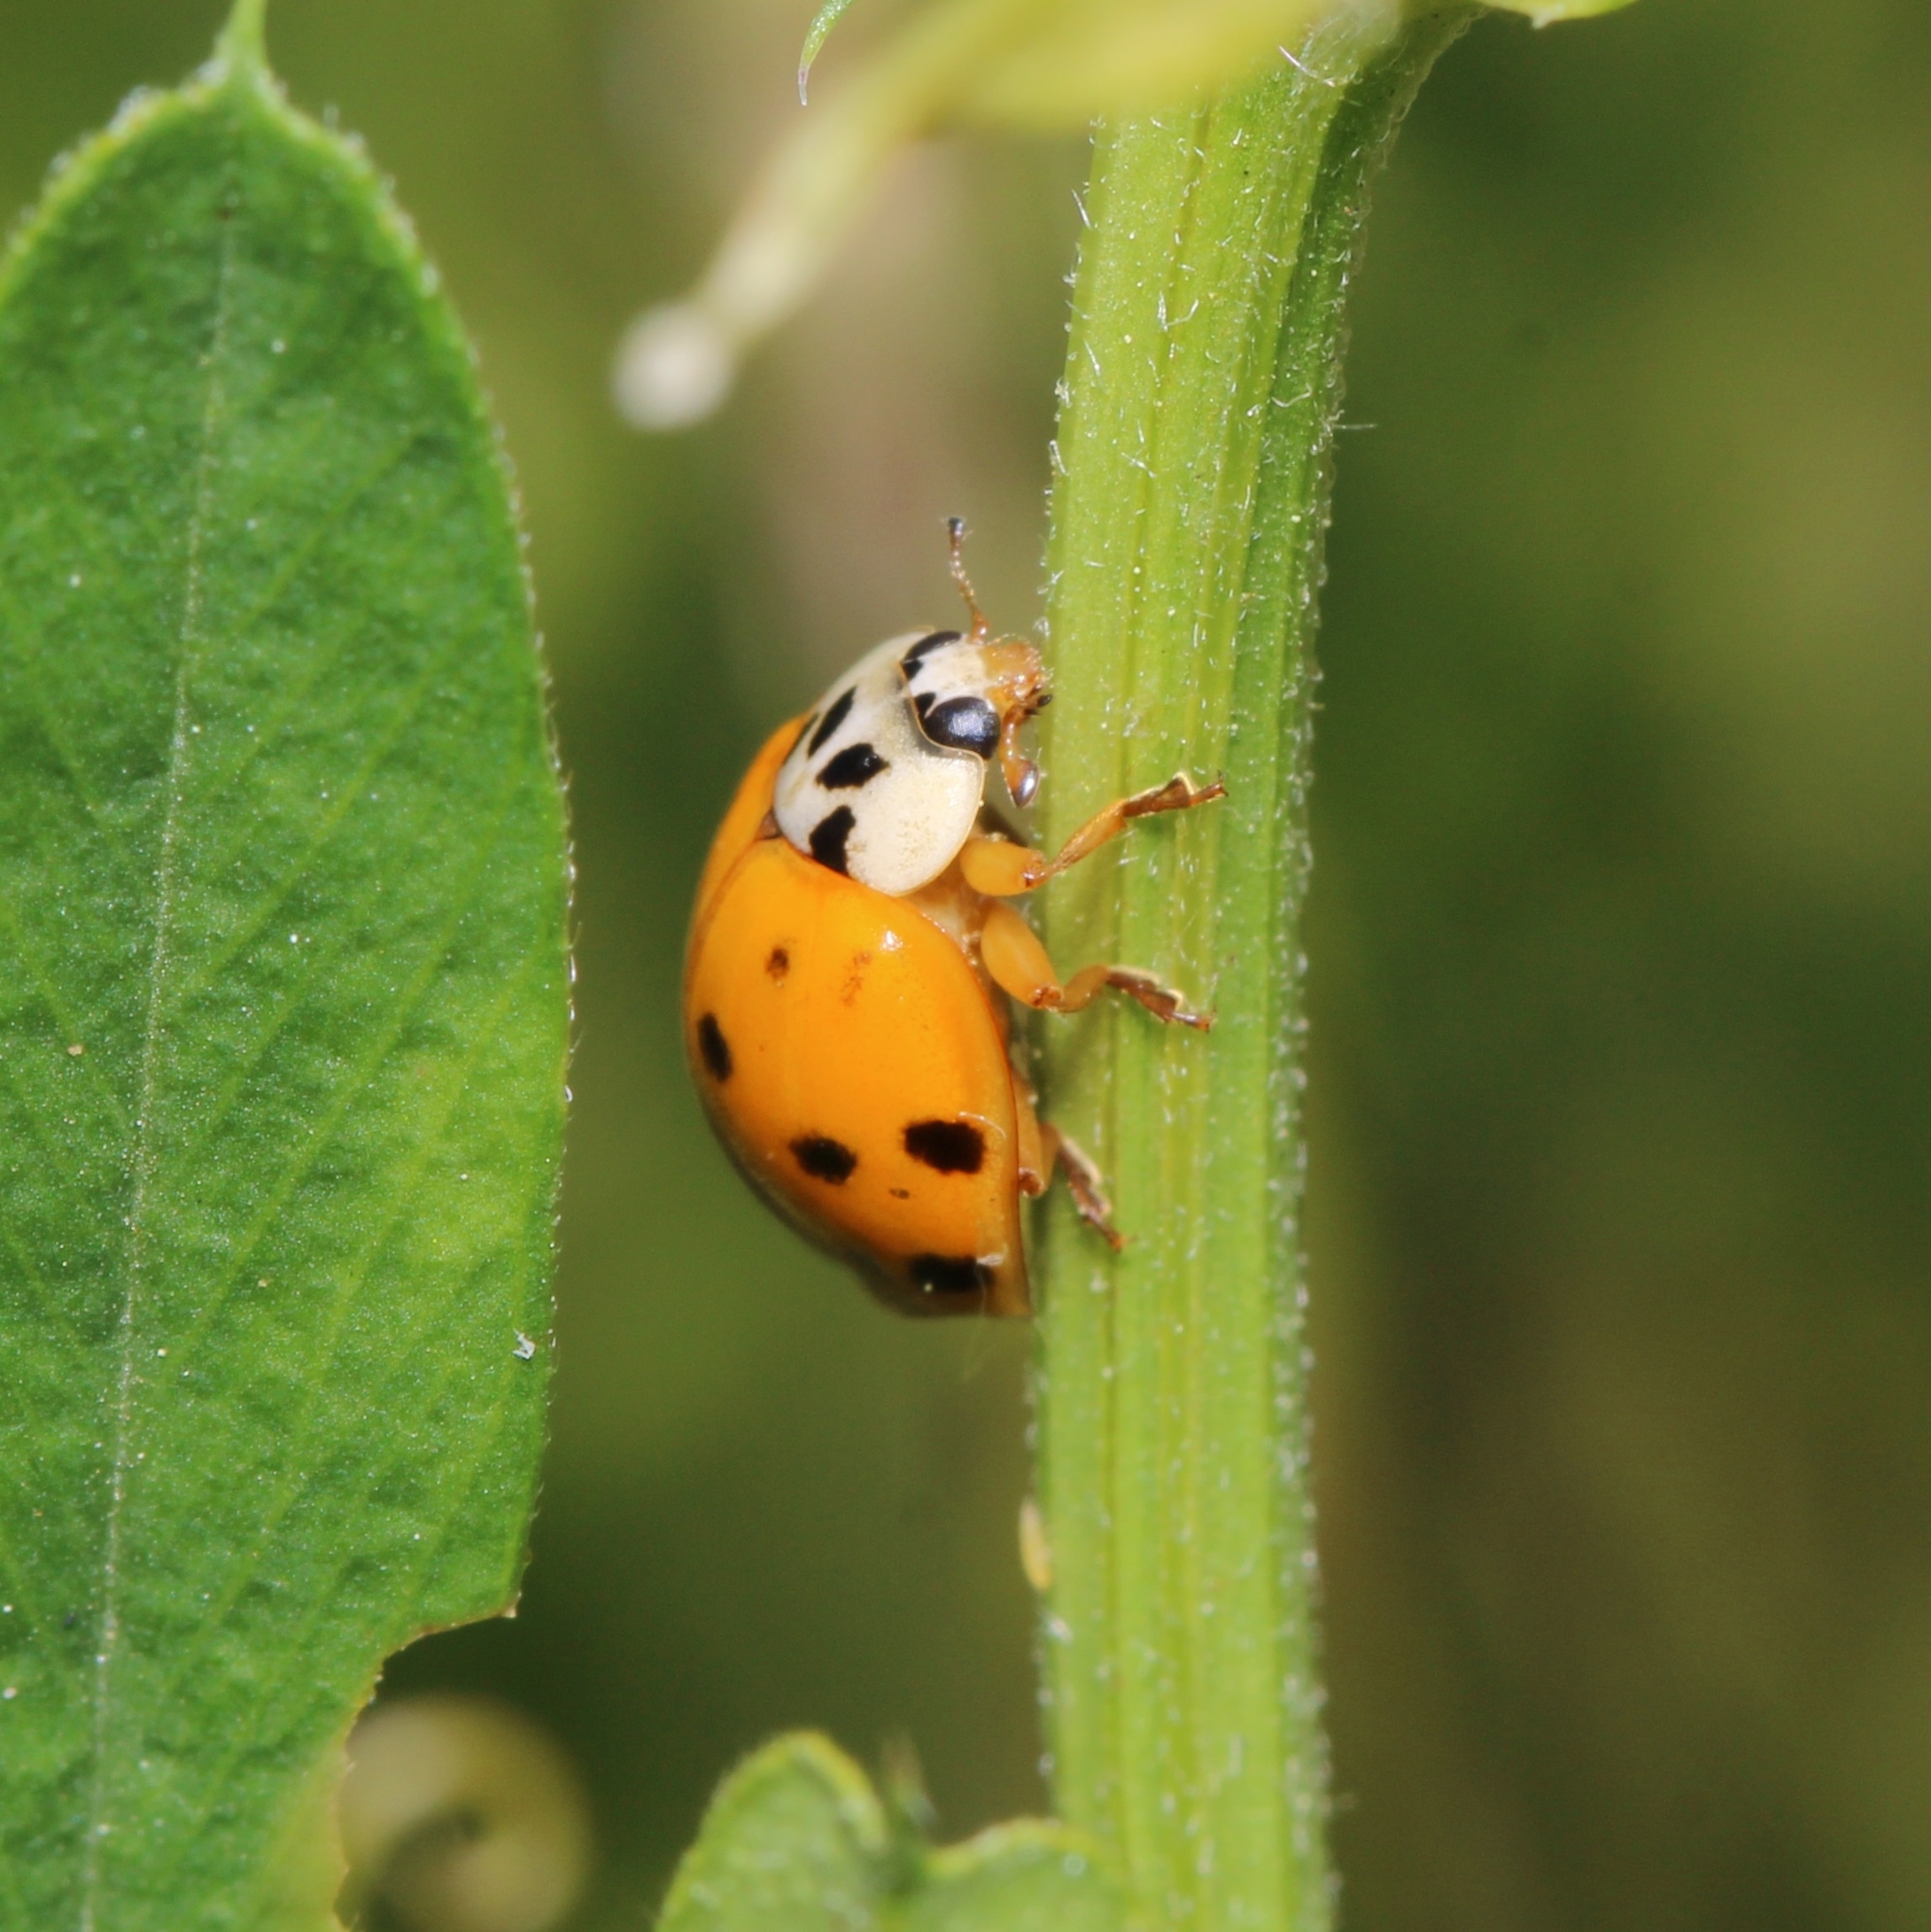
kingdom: Animalia
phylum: Arthropoda
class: Insecta
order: Coleoptera
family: Coccinellidae
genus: Harmonia
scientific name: Harmonia axyridis
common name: Harlequin ladybird
